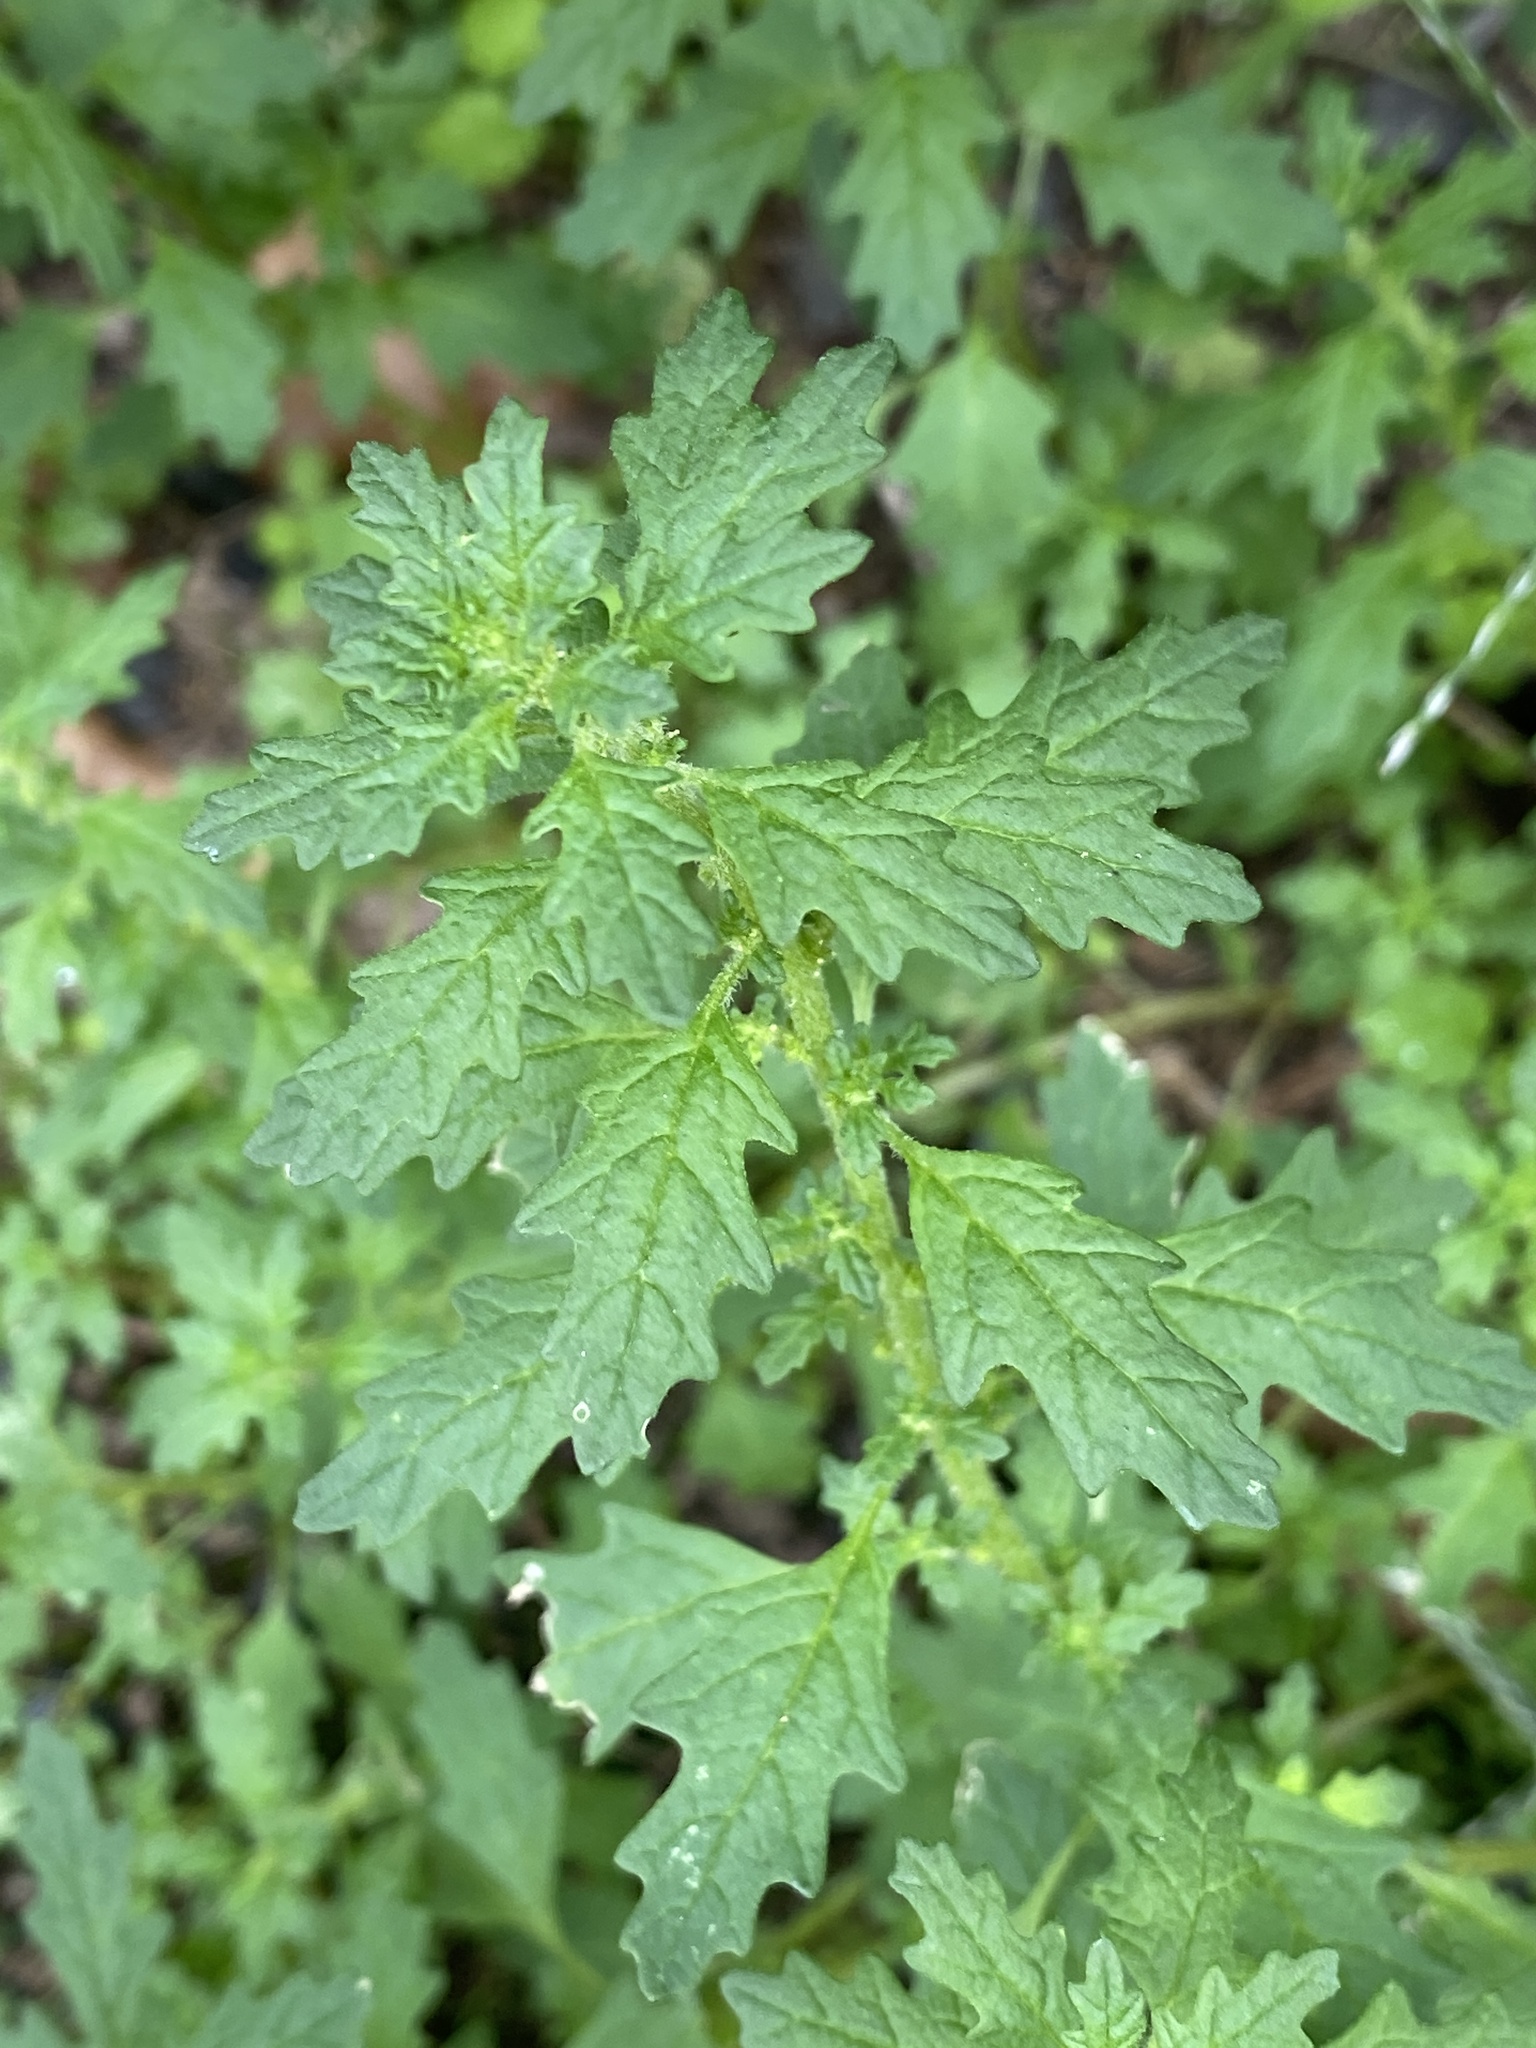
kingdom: Plantae
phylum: Tracheophyta
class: Magnoliopsida
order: Caryophyllales
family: Amaranthaceae
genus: Dysphania
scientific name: Dysphania pumilio
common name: Clammy goosefoot
